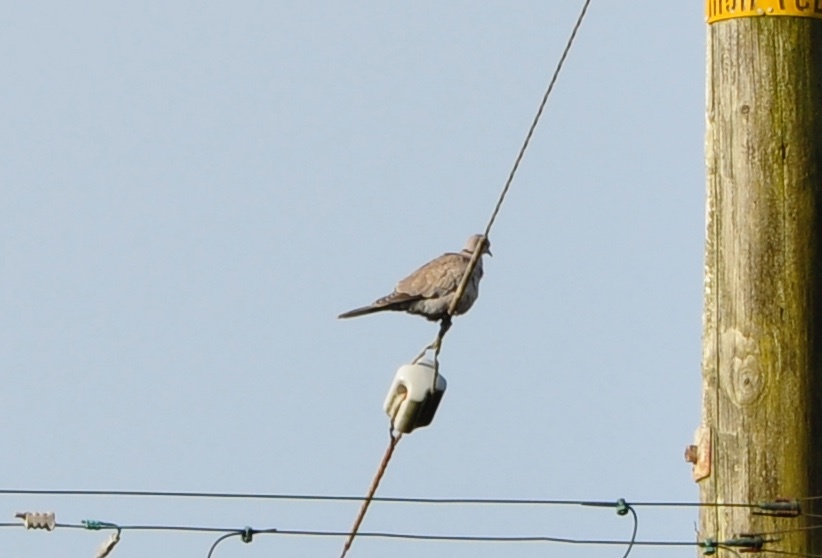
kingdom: Animalia
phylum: Chordata
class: Aves
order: Columbiformes
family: Columbidae
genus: Streptopelia
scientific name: Streptopelia decaocto
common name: Eurasian collared dove
